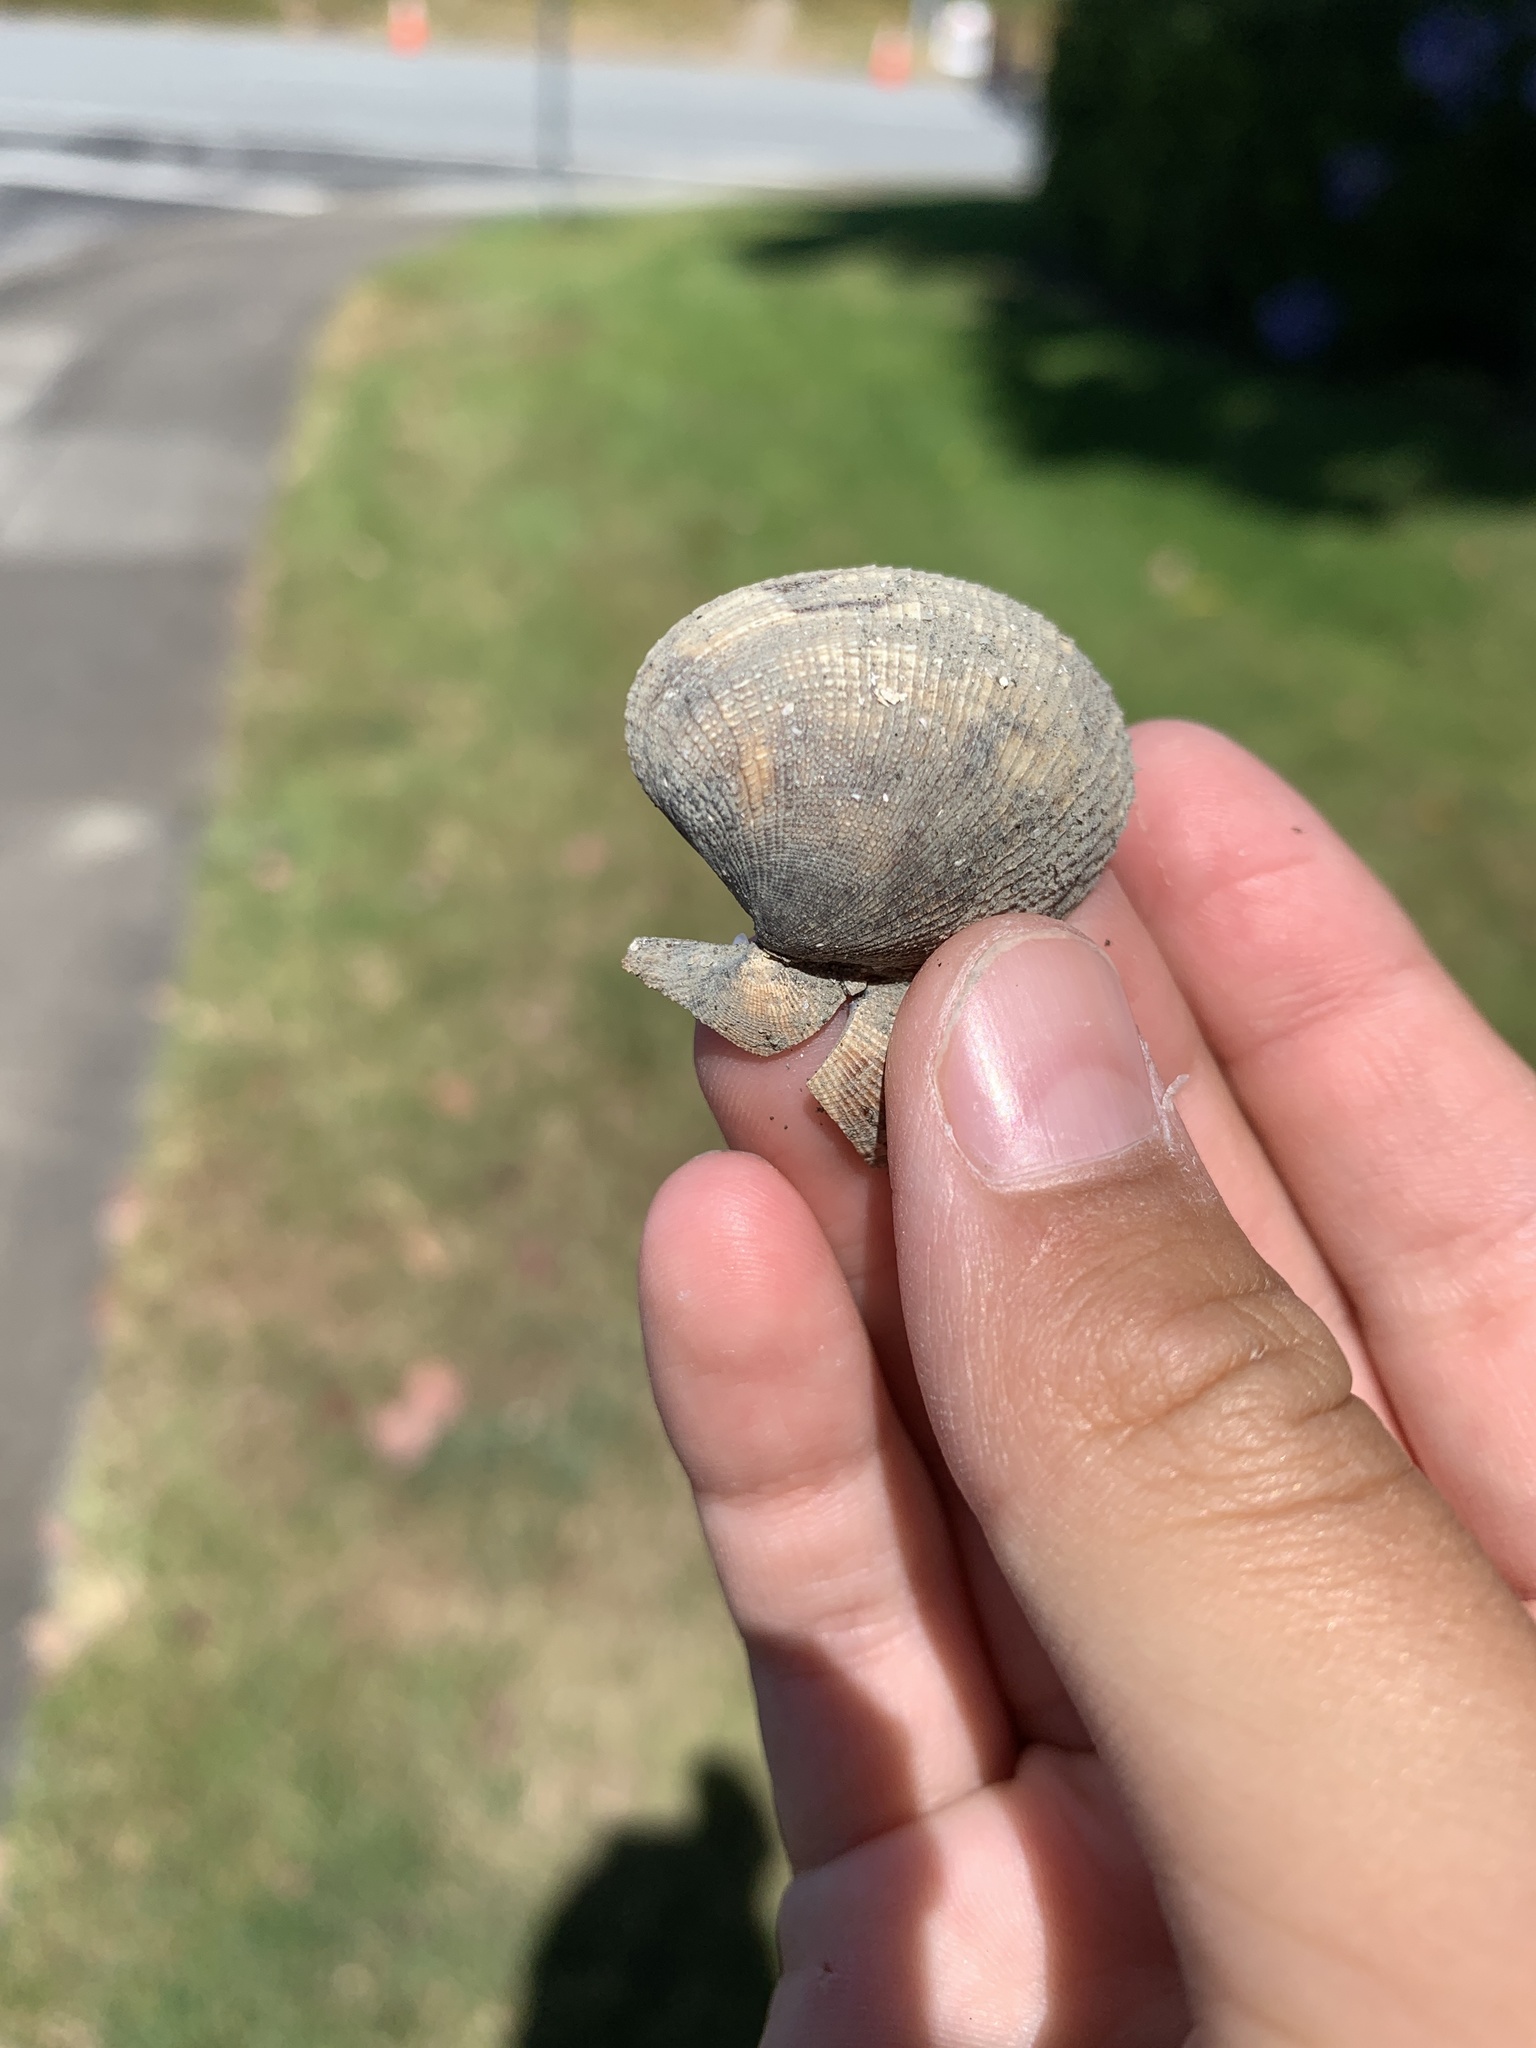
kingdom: Animalia
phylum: Mollusca
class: Bivalvia
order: Venerida
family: Veneridae
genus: Ruditapes
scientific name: Ruditapes philippinarum
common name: Manila clam
